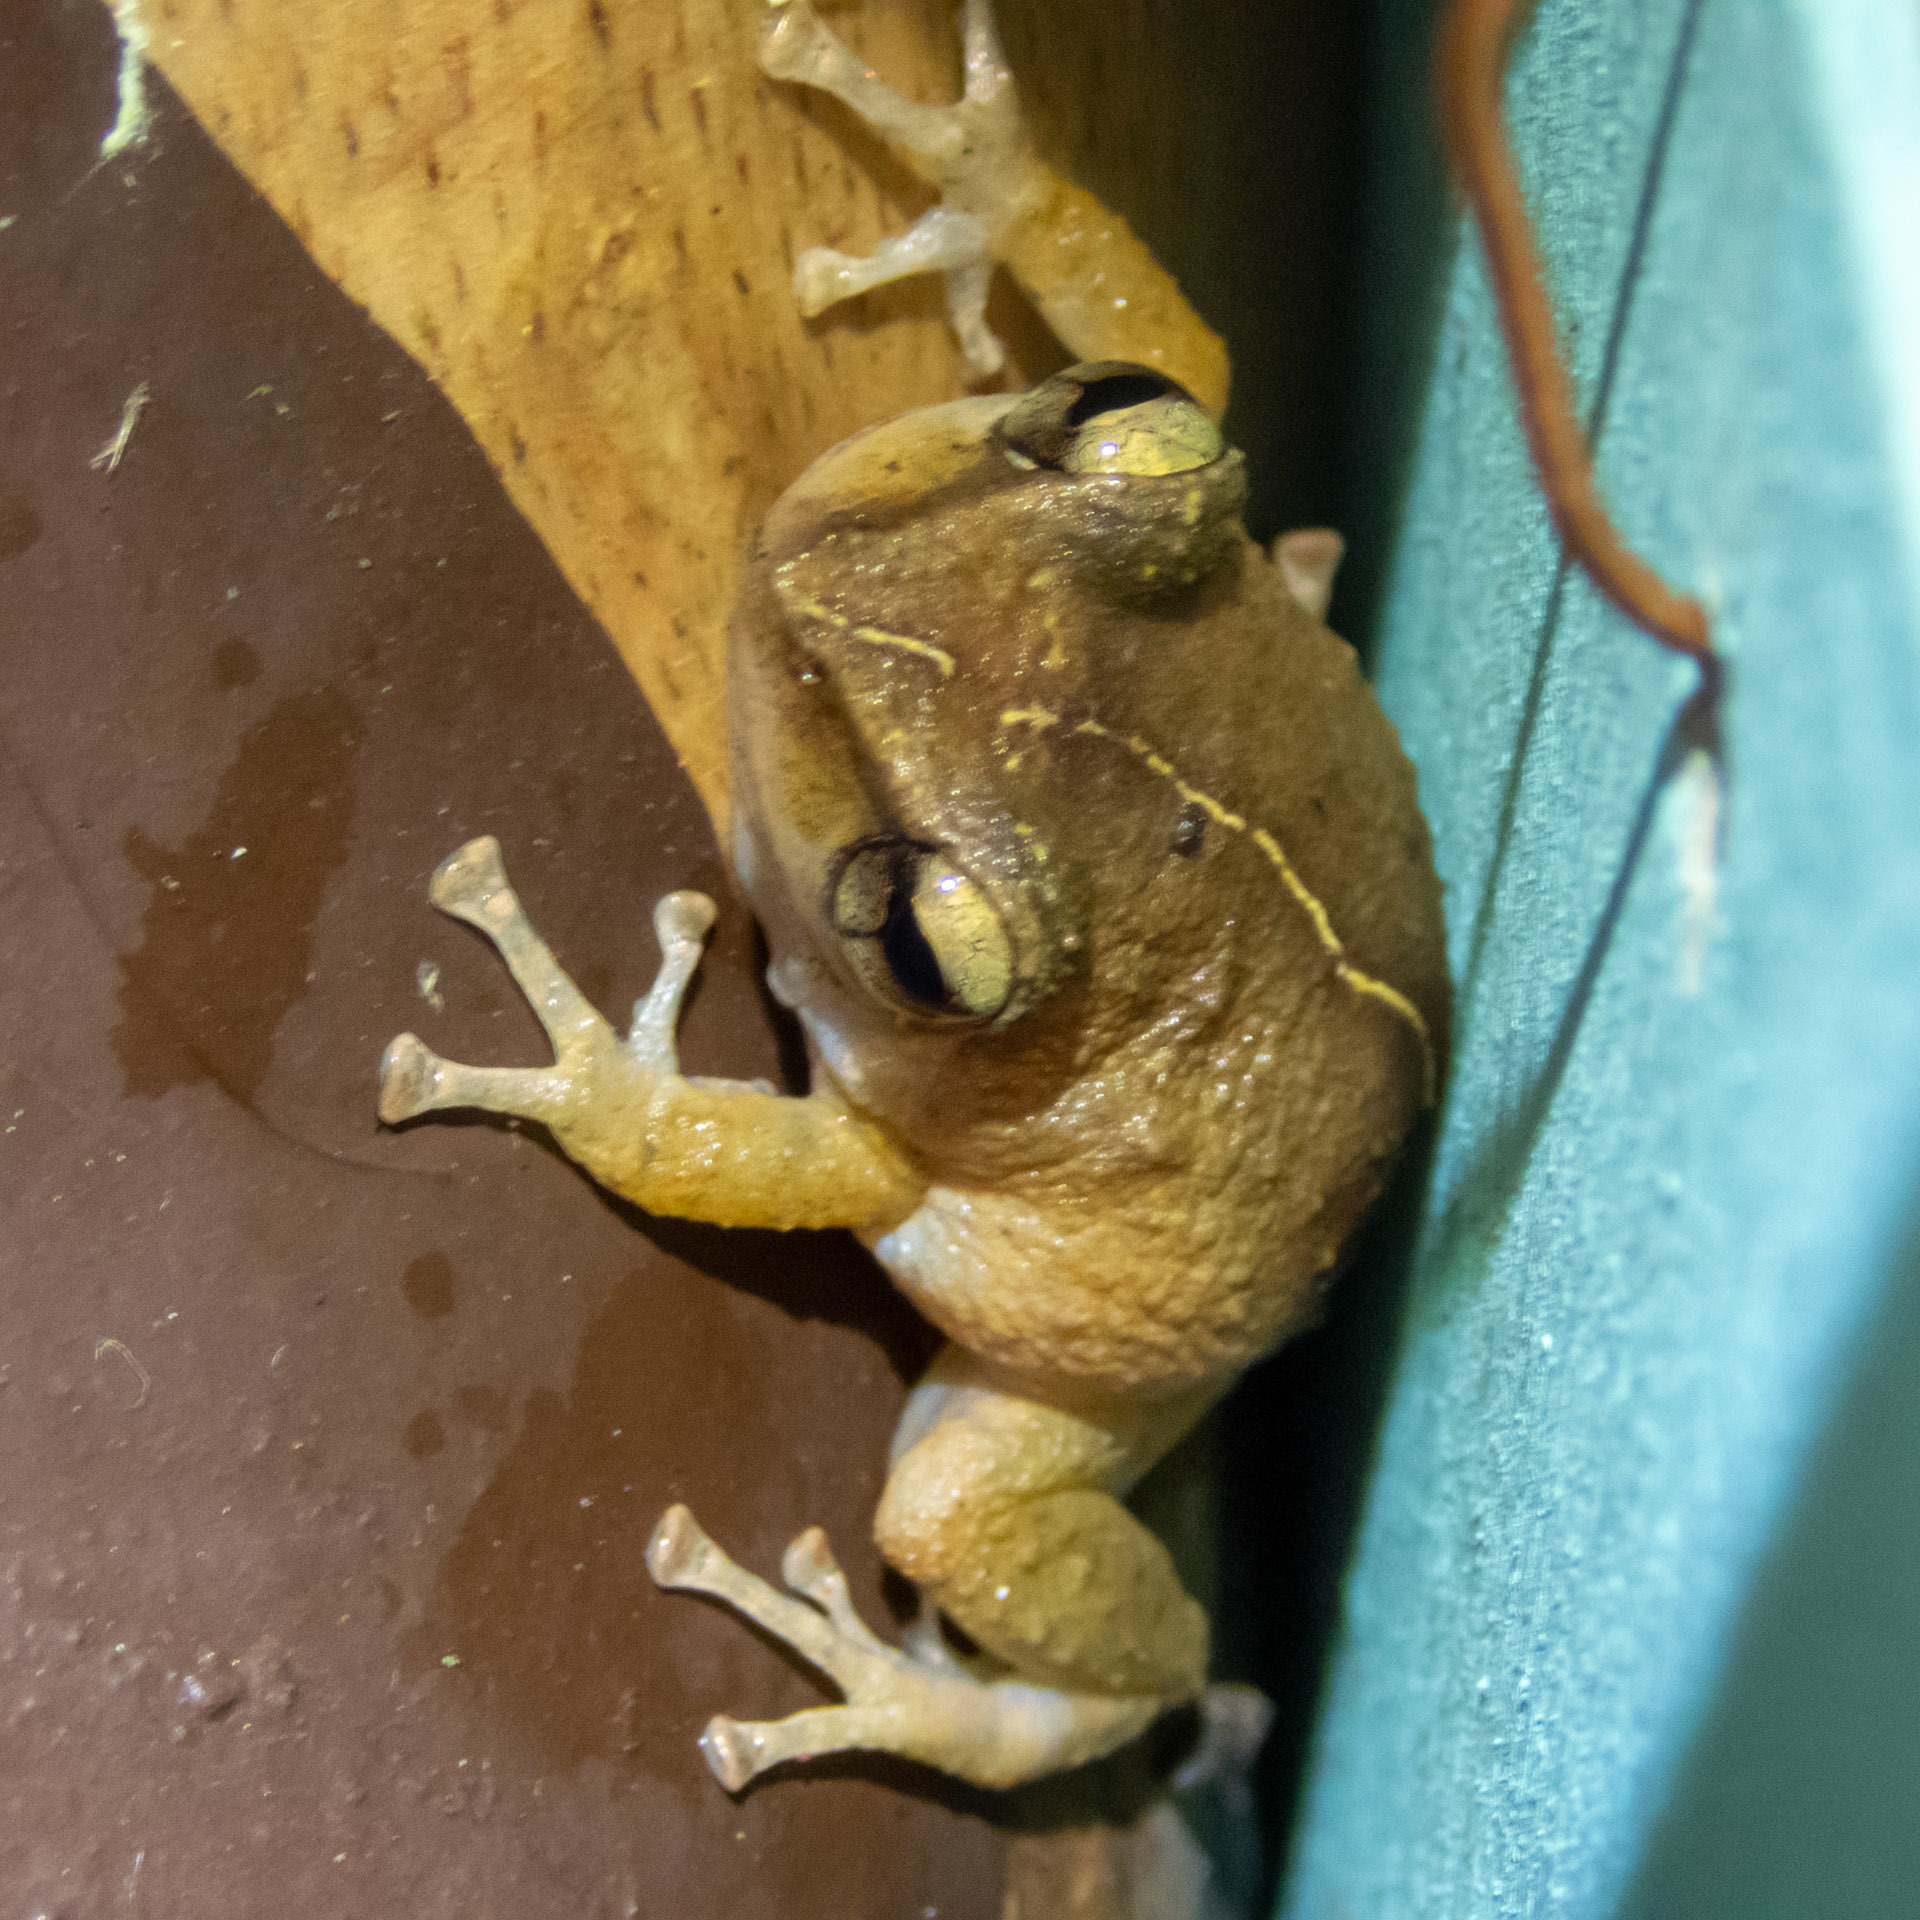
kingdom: Animalia
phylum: Chordata
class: Amphibia
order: Anura
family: Eleutherodactylidae
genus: Eleutherodactylus
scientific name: Eleutherodactylus coqui
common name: Coqui frog
